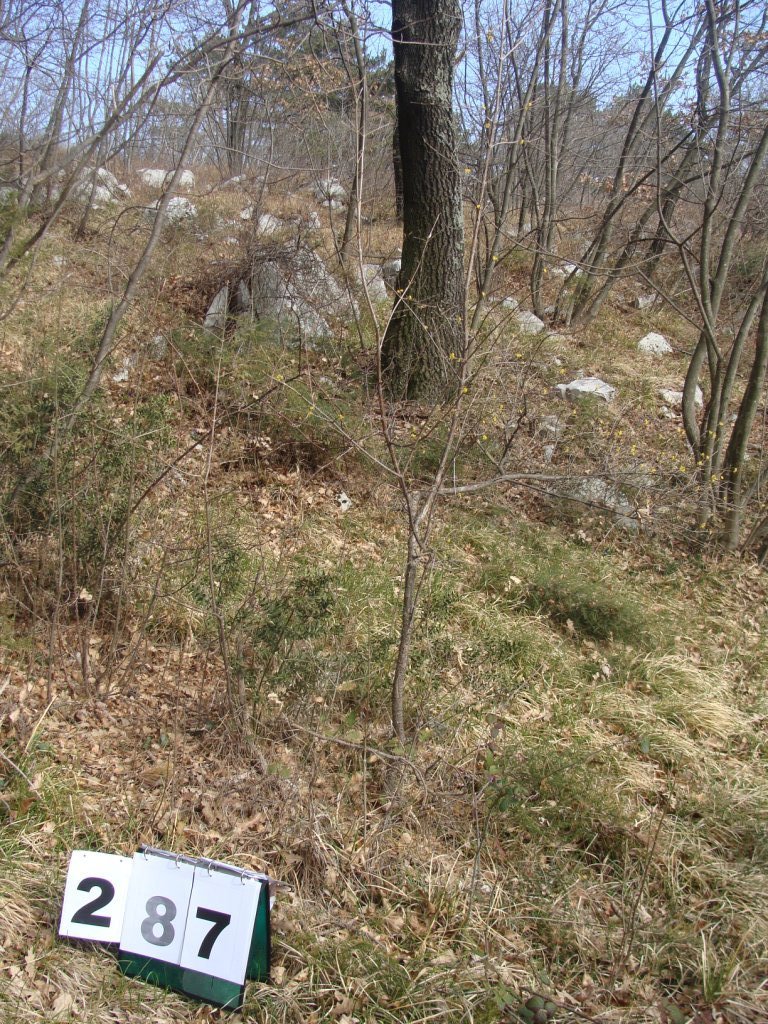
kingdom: Plantae
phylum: Tracheophyta
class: Magnoliopsida
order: Cornales
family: Cornaceae
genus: Cornus
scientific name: Cornus mas
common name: Cornelian-cherry
